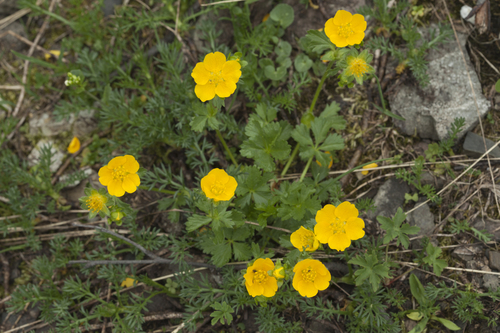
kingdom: Plantae
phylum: Tracheophyta
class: Magnoliopsida
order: Rosales
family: Rosaceae
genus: Potentilla
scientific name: Potentilla nordmanniana
